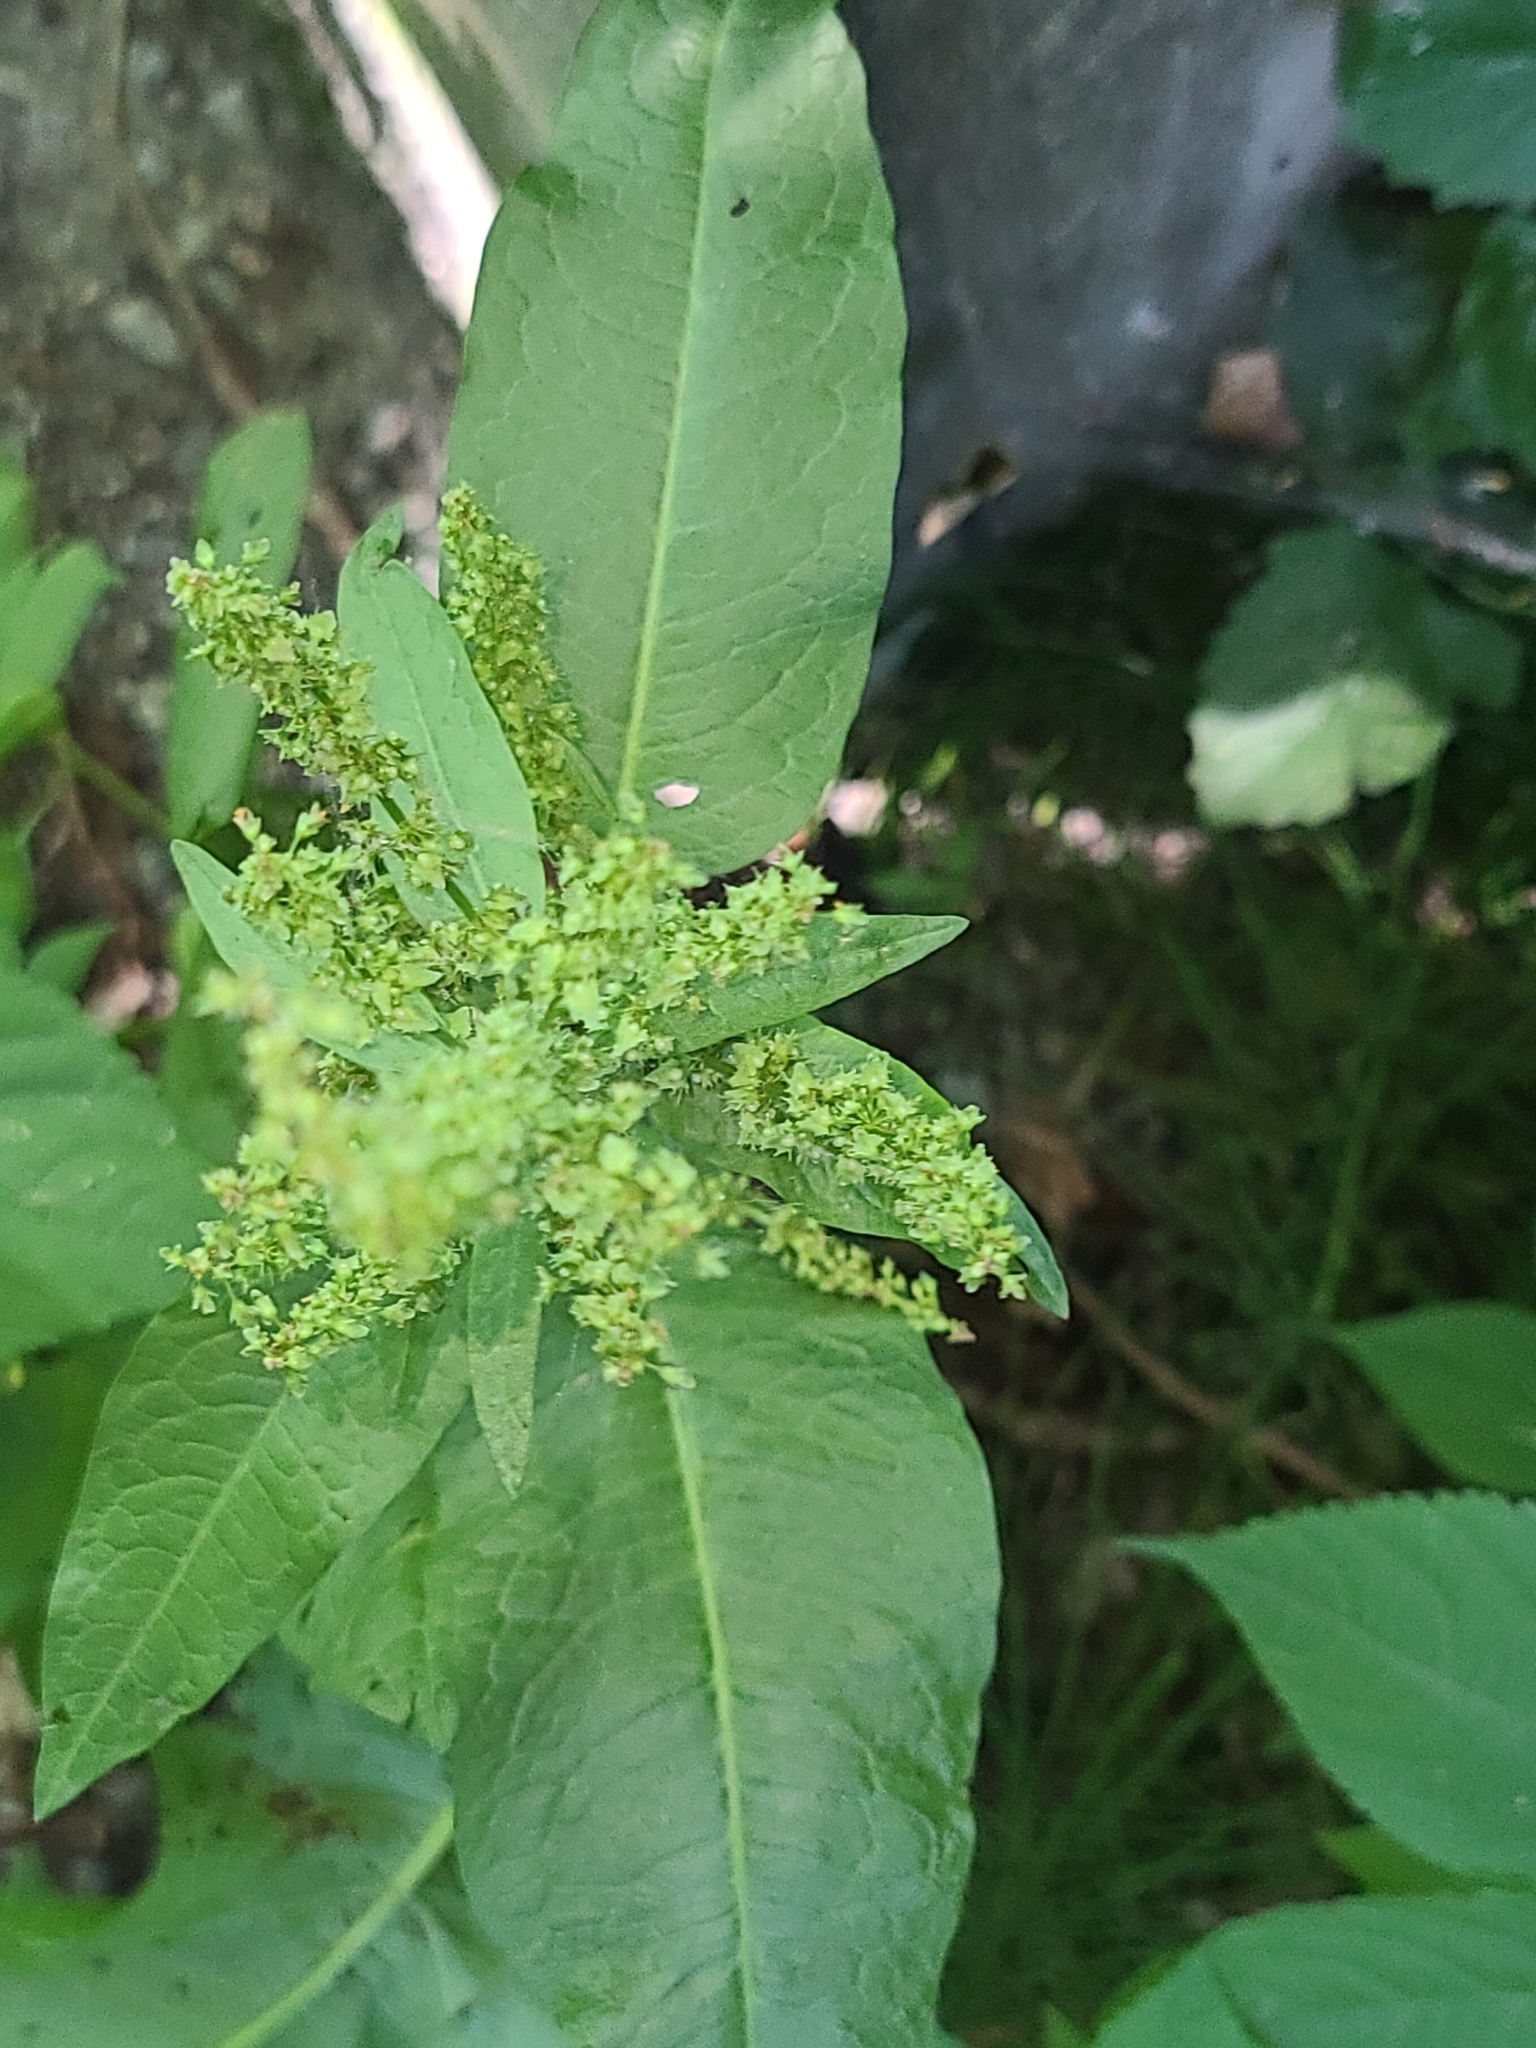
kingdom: Plantae
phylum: Tracheophyta
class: Magnoliopsida
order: Caryophyllales
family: Polygonaceae
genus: Rumex
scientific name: Rumex obtusifolius
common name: Bitter dock
